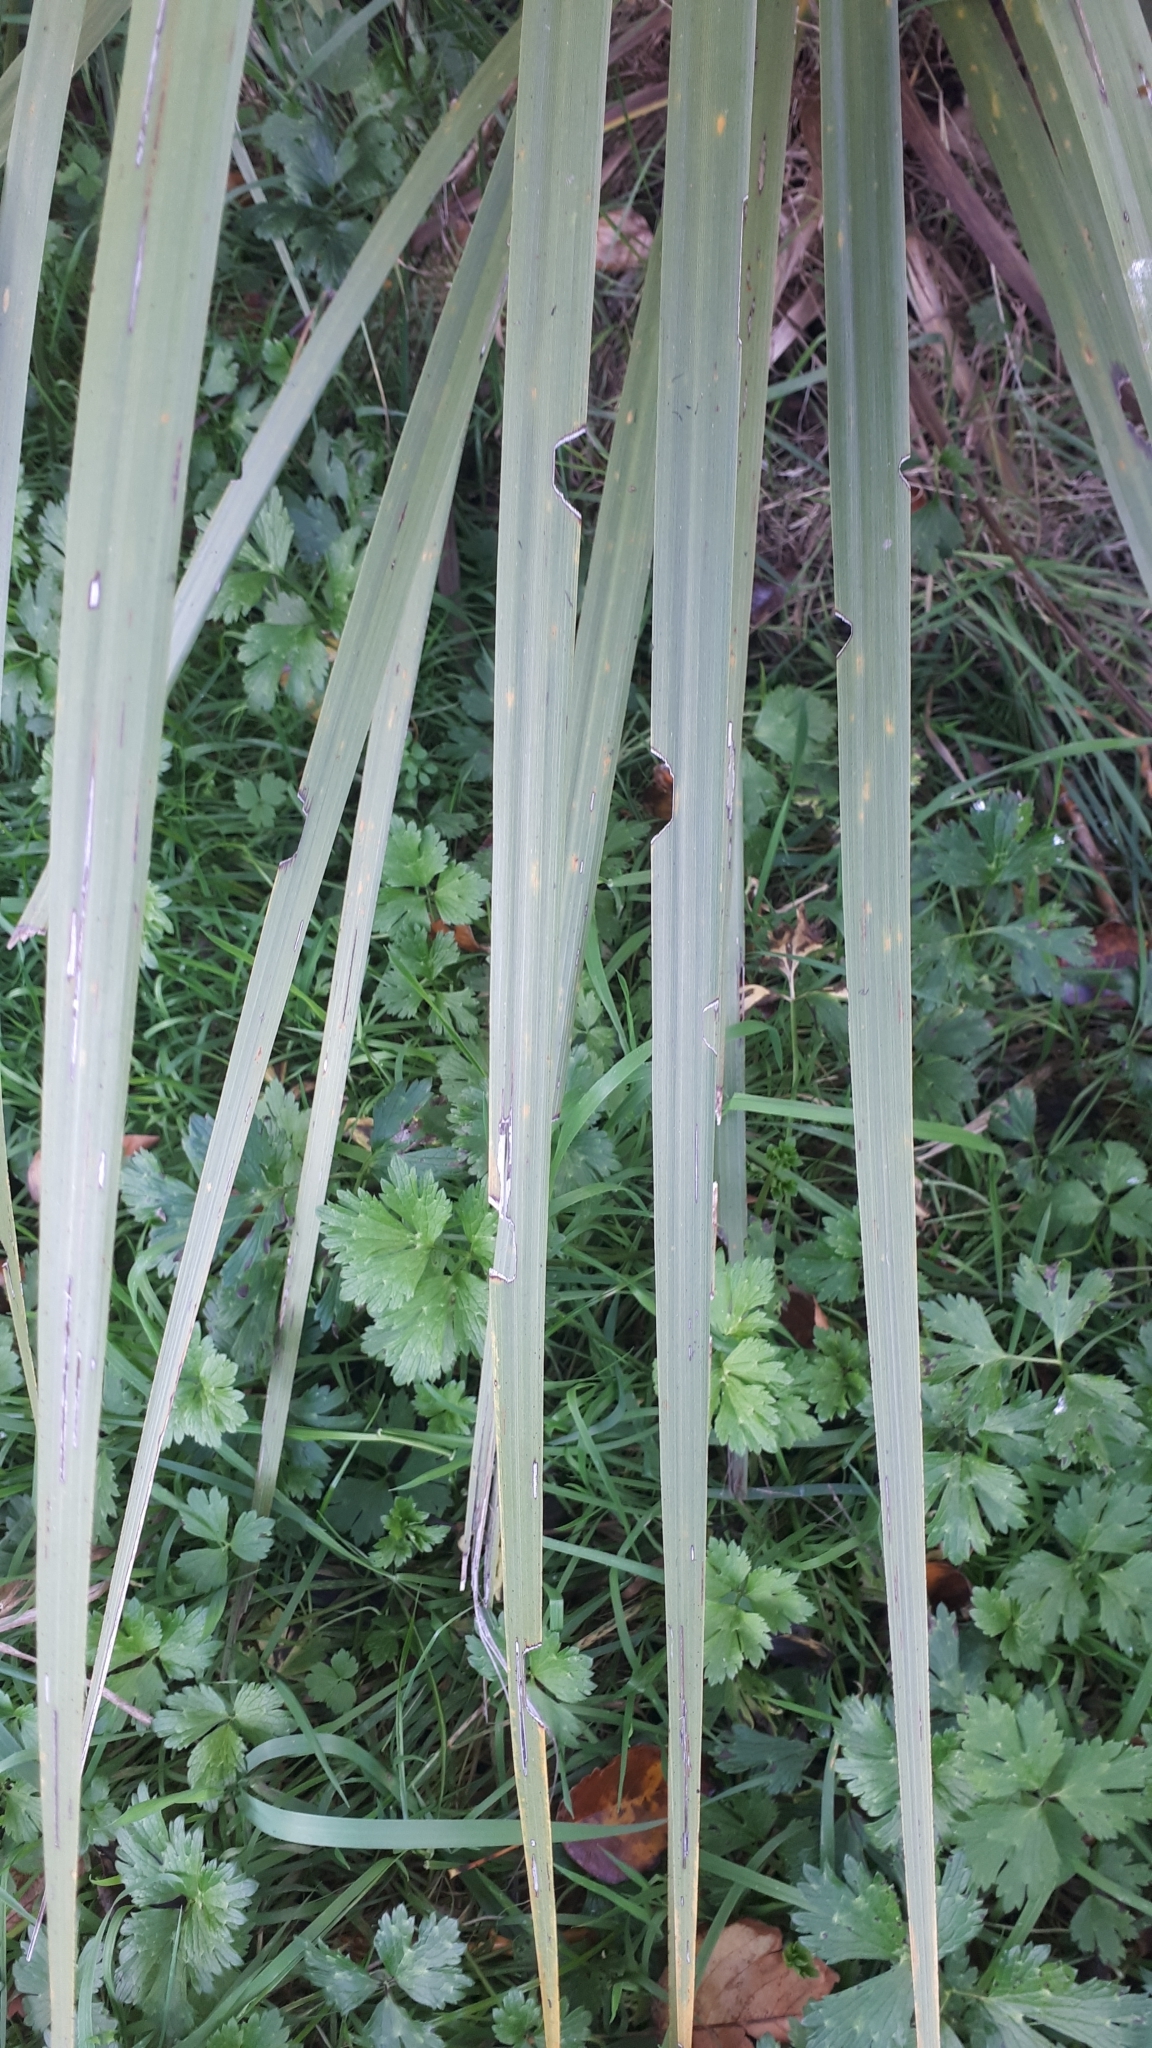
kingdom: Animalia
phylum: Arthropoda
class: Insecta
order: Lepidoptera
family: Geometridae
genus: Epiphryne
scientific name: Epiphryne verriculata
